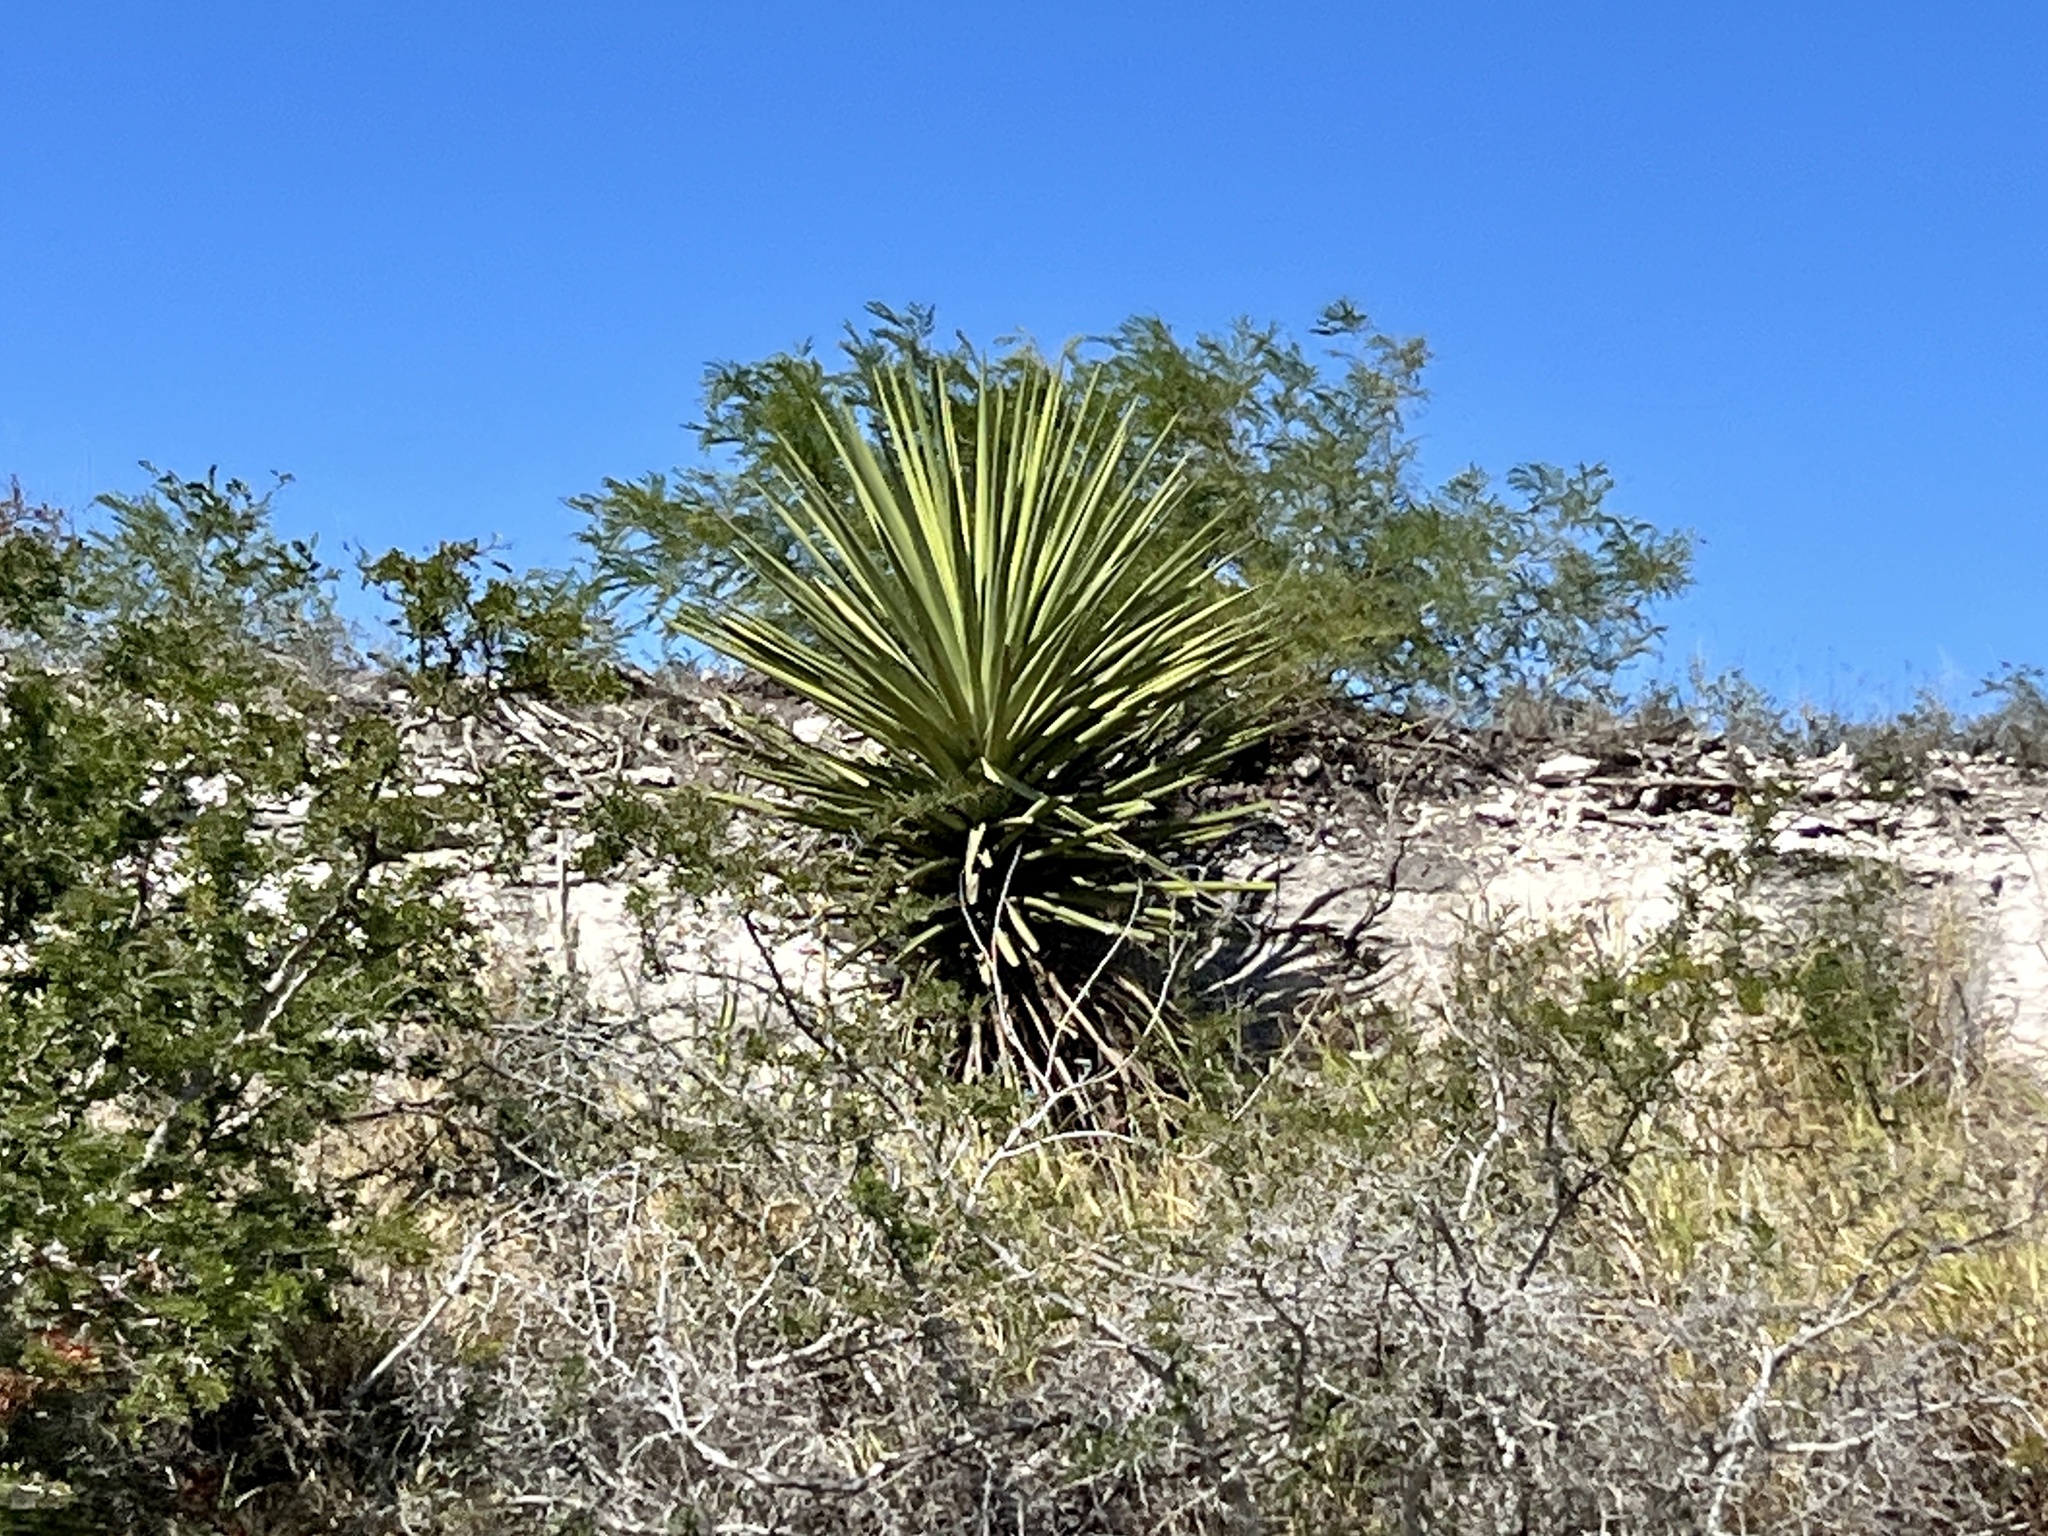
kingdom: Plantae
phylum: Tracheophyta
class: Liliopsida
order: Asparagales
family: Asparagaceae
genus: Yucca
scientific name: Yucca treculiana
